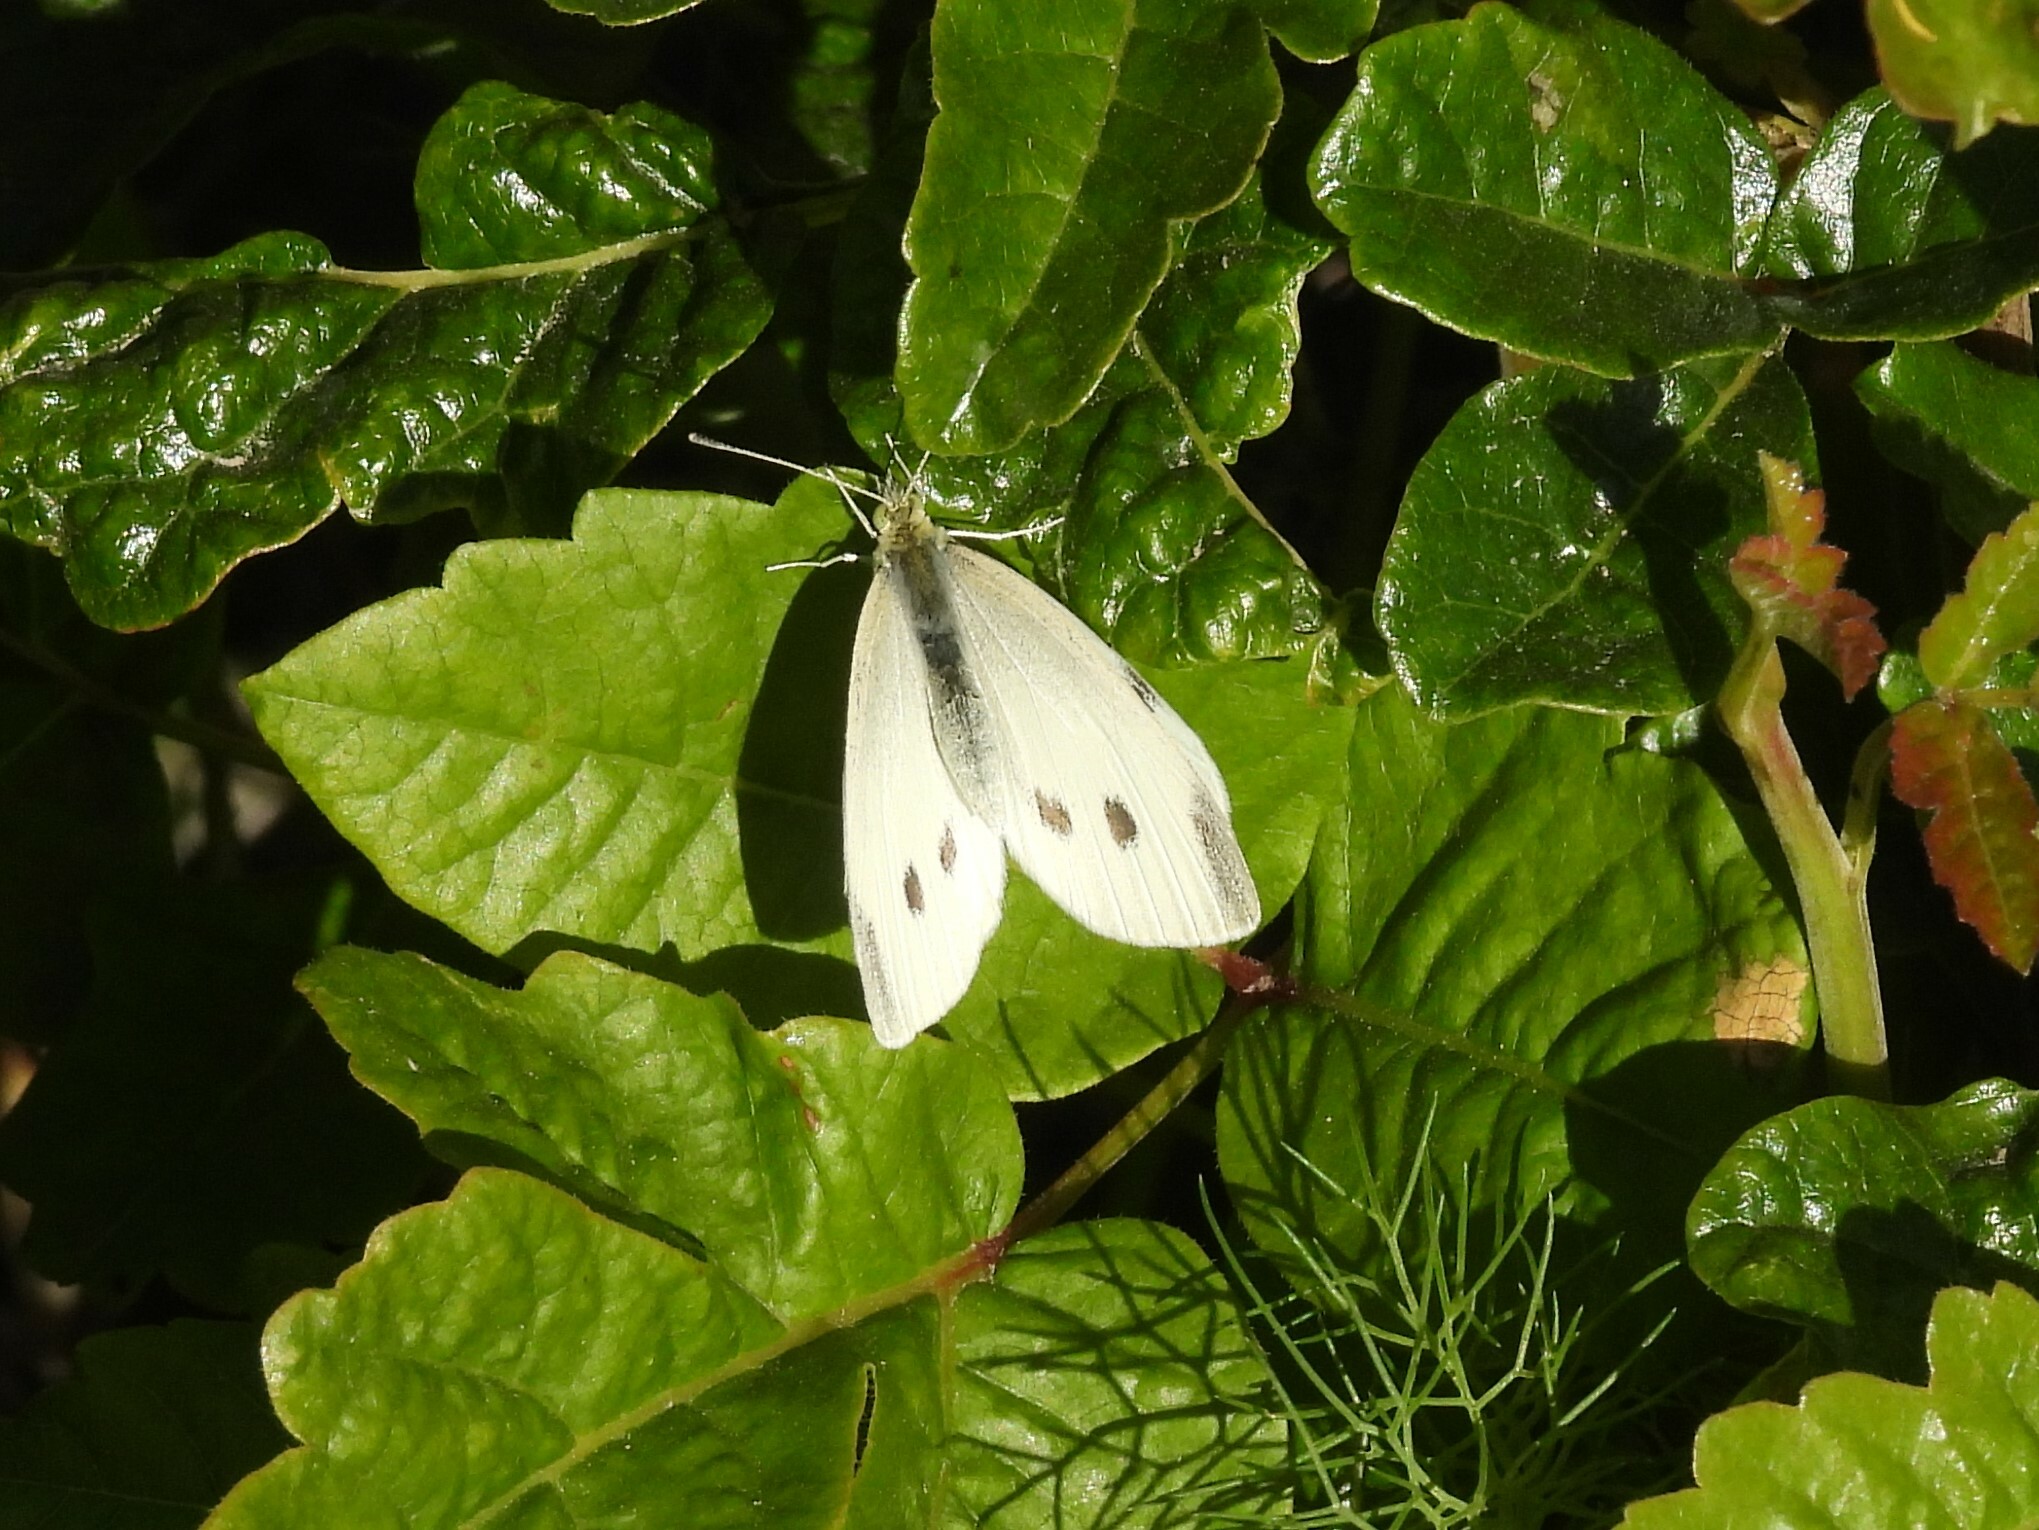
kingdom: Animalia
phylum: Arthropoda
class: Insecta
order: Lepidoptera
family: Pieridae
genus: Pieris
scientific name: Pieris rapae
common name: Small white
